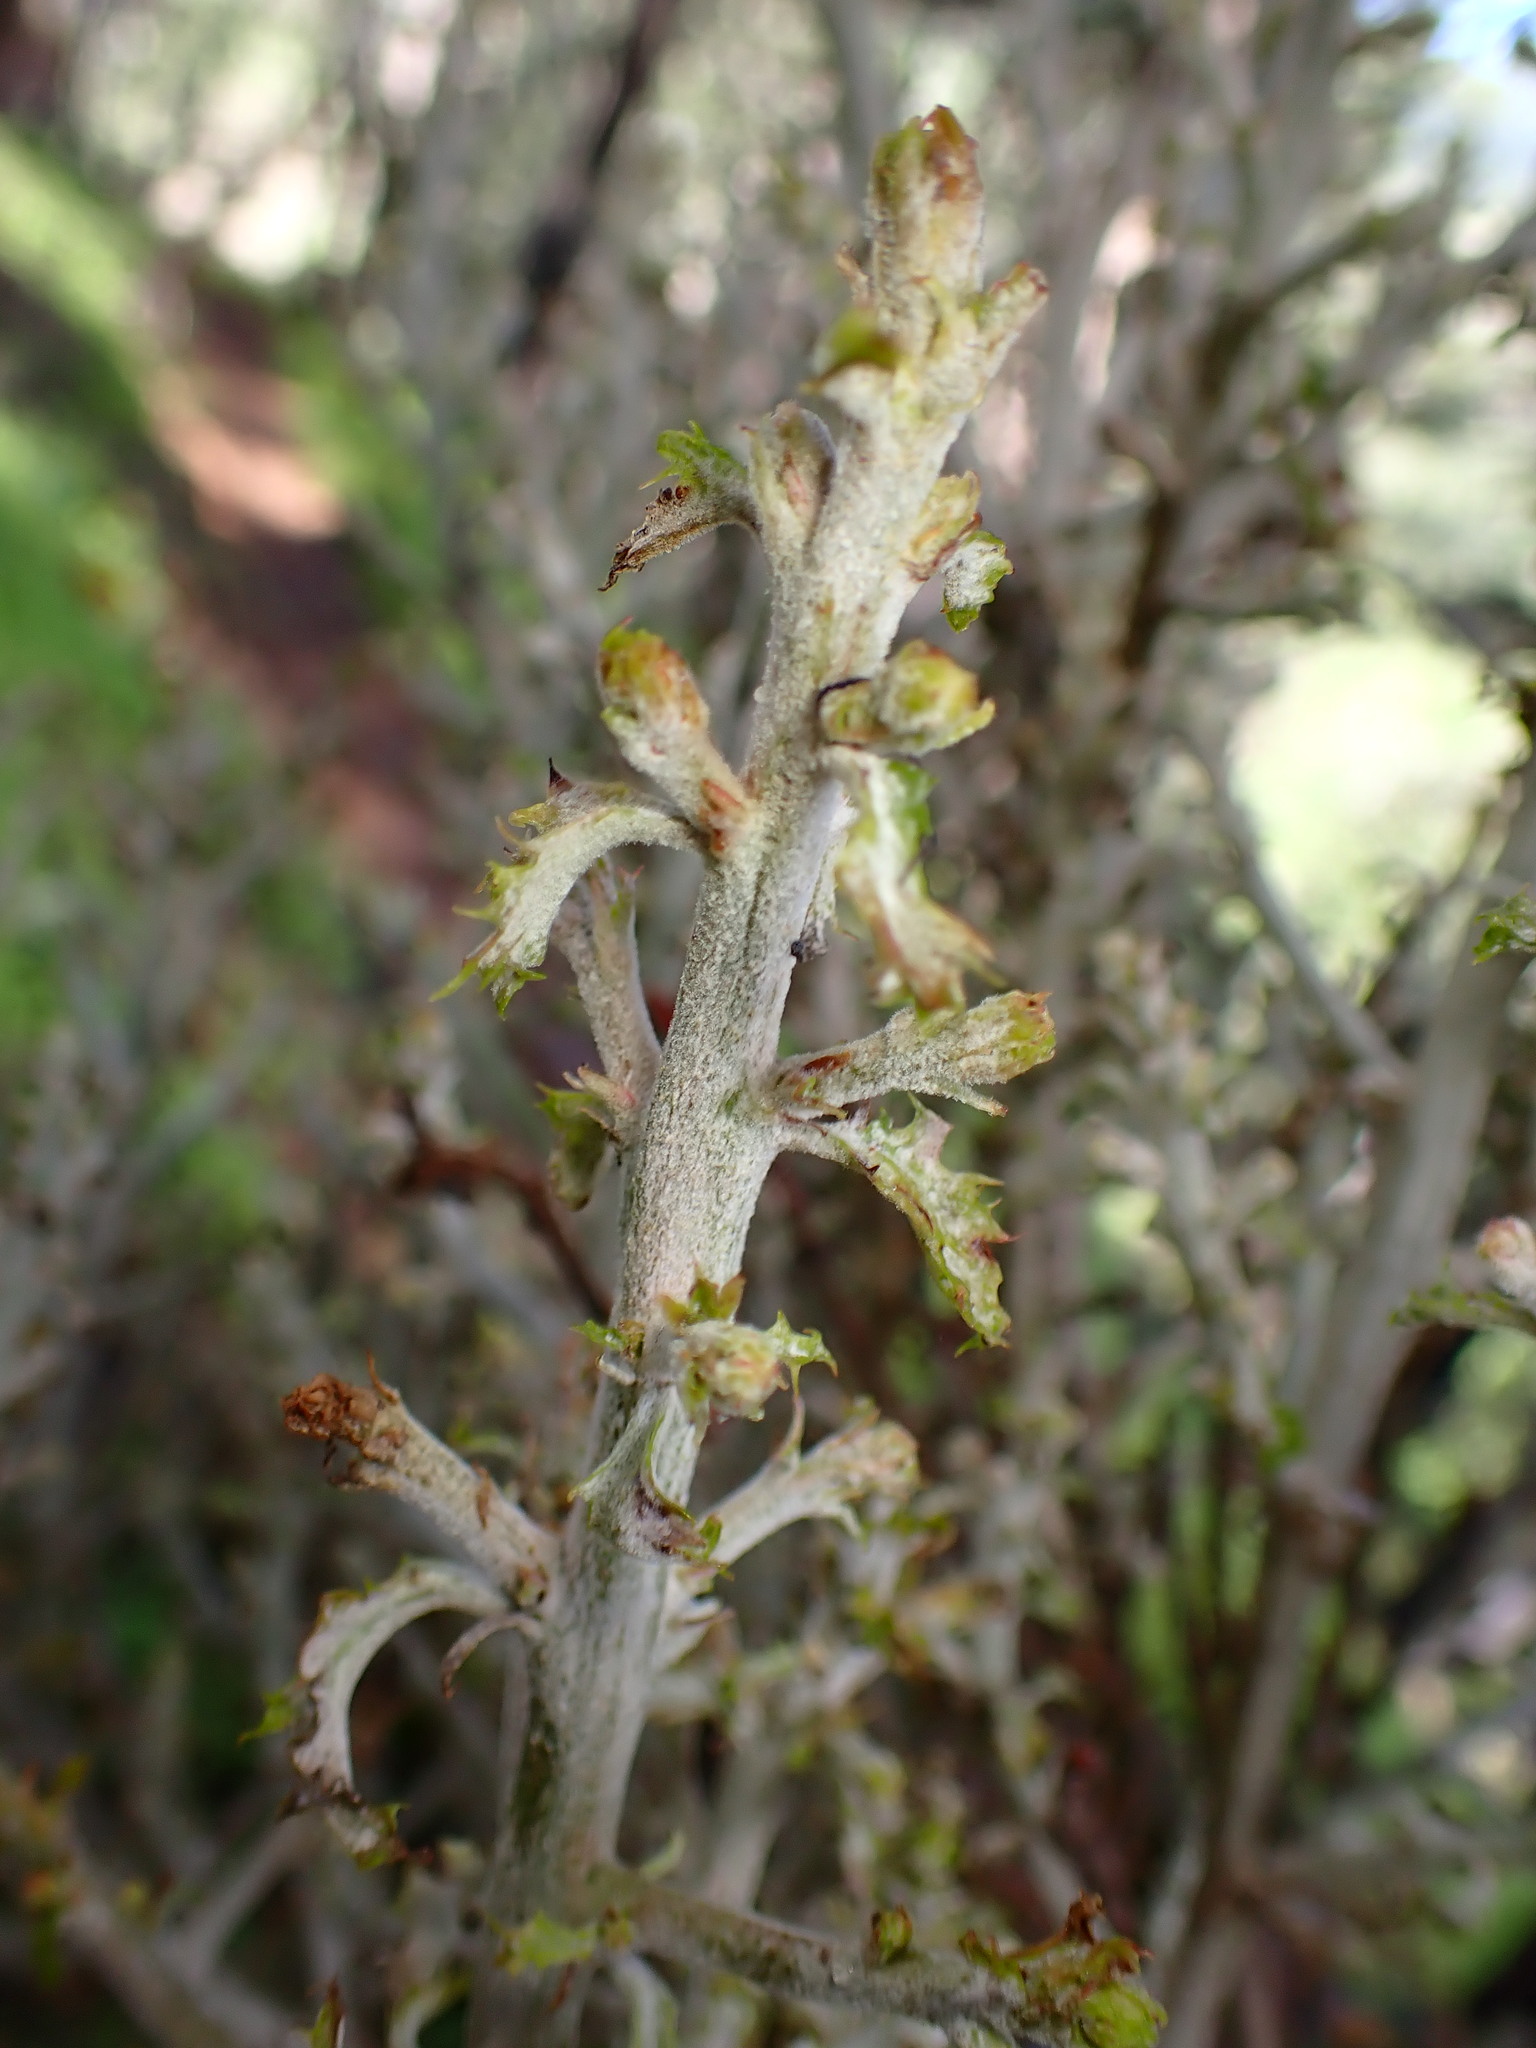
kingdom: Fungi
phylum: Ascomycota
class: Leotiomycetes
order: Helotiales
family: Erysiphaceae
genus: Cystotheca
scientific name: Cystotheca lanestris
